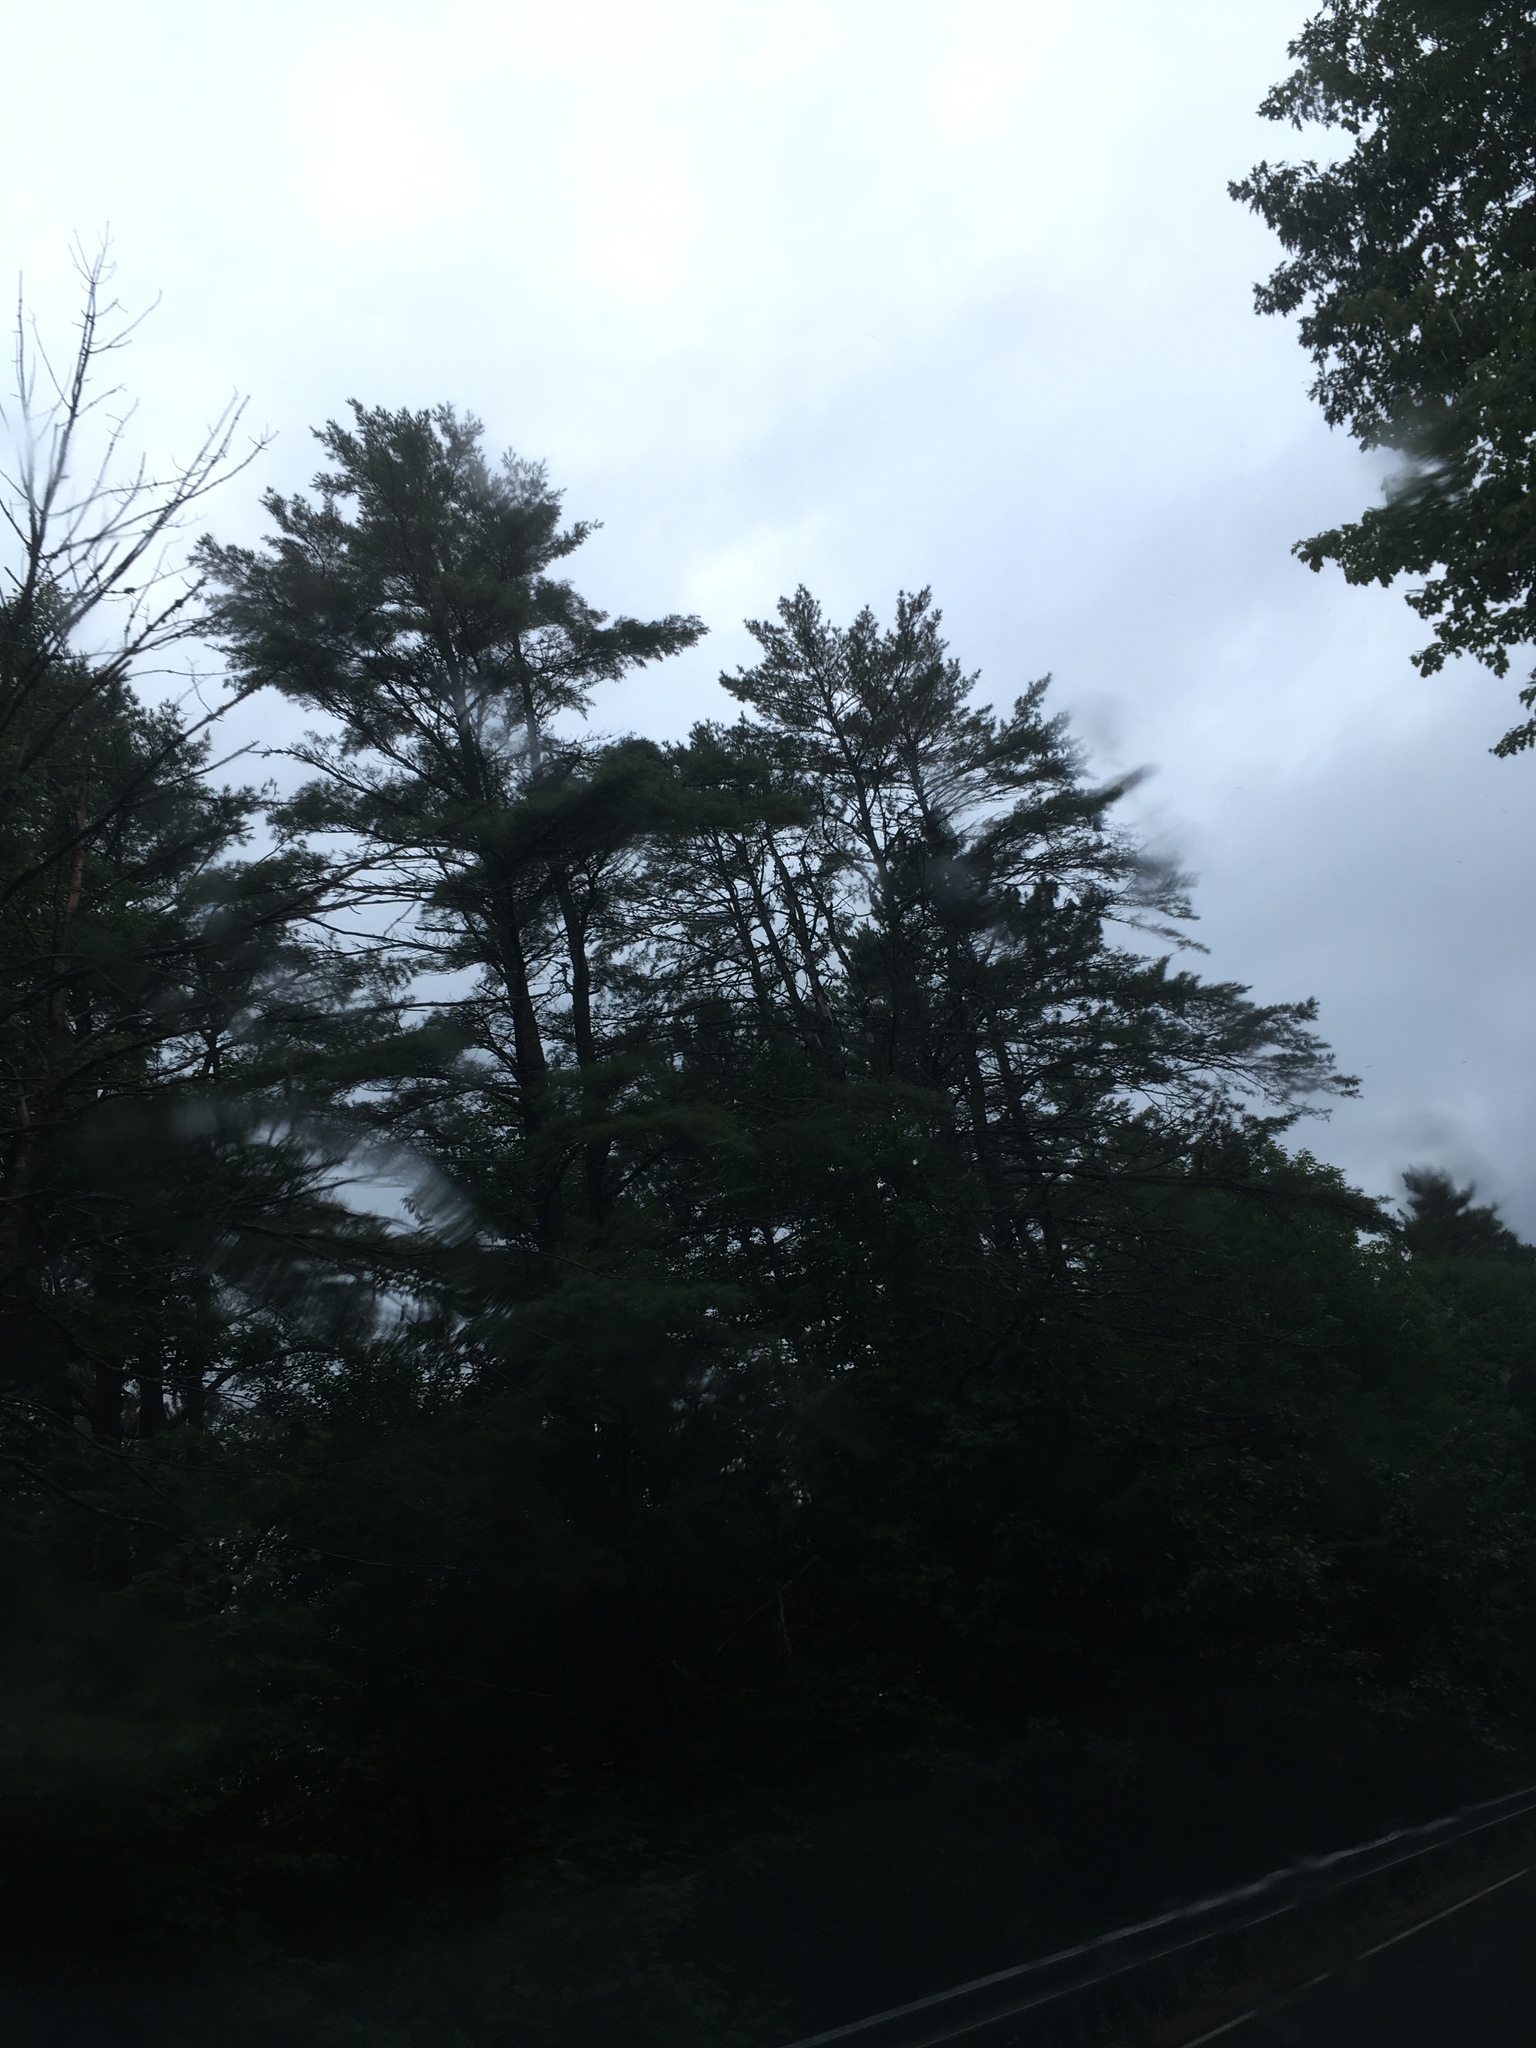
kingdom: Plantae
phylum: Tracheophyta
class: Pinopsida
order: Pinales
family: Pinaceae
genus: Pinus
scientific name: Pinus strobus
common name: Weymouth pine
